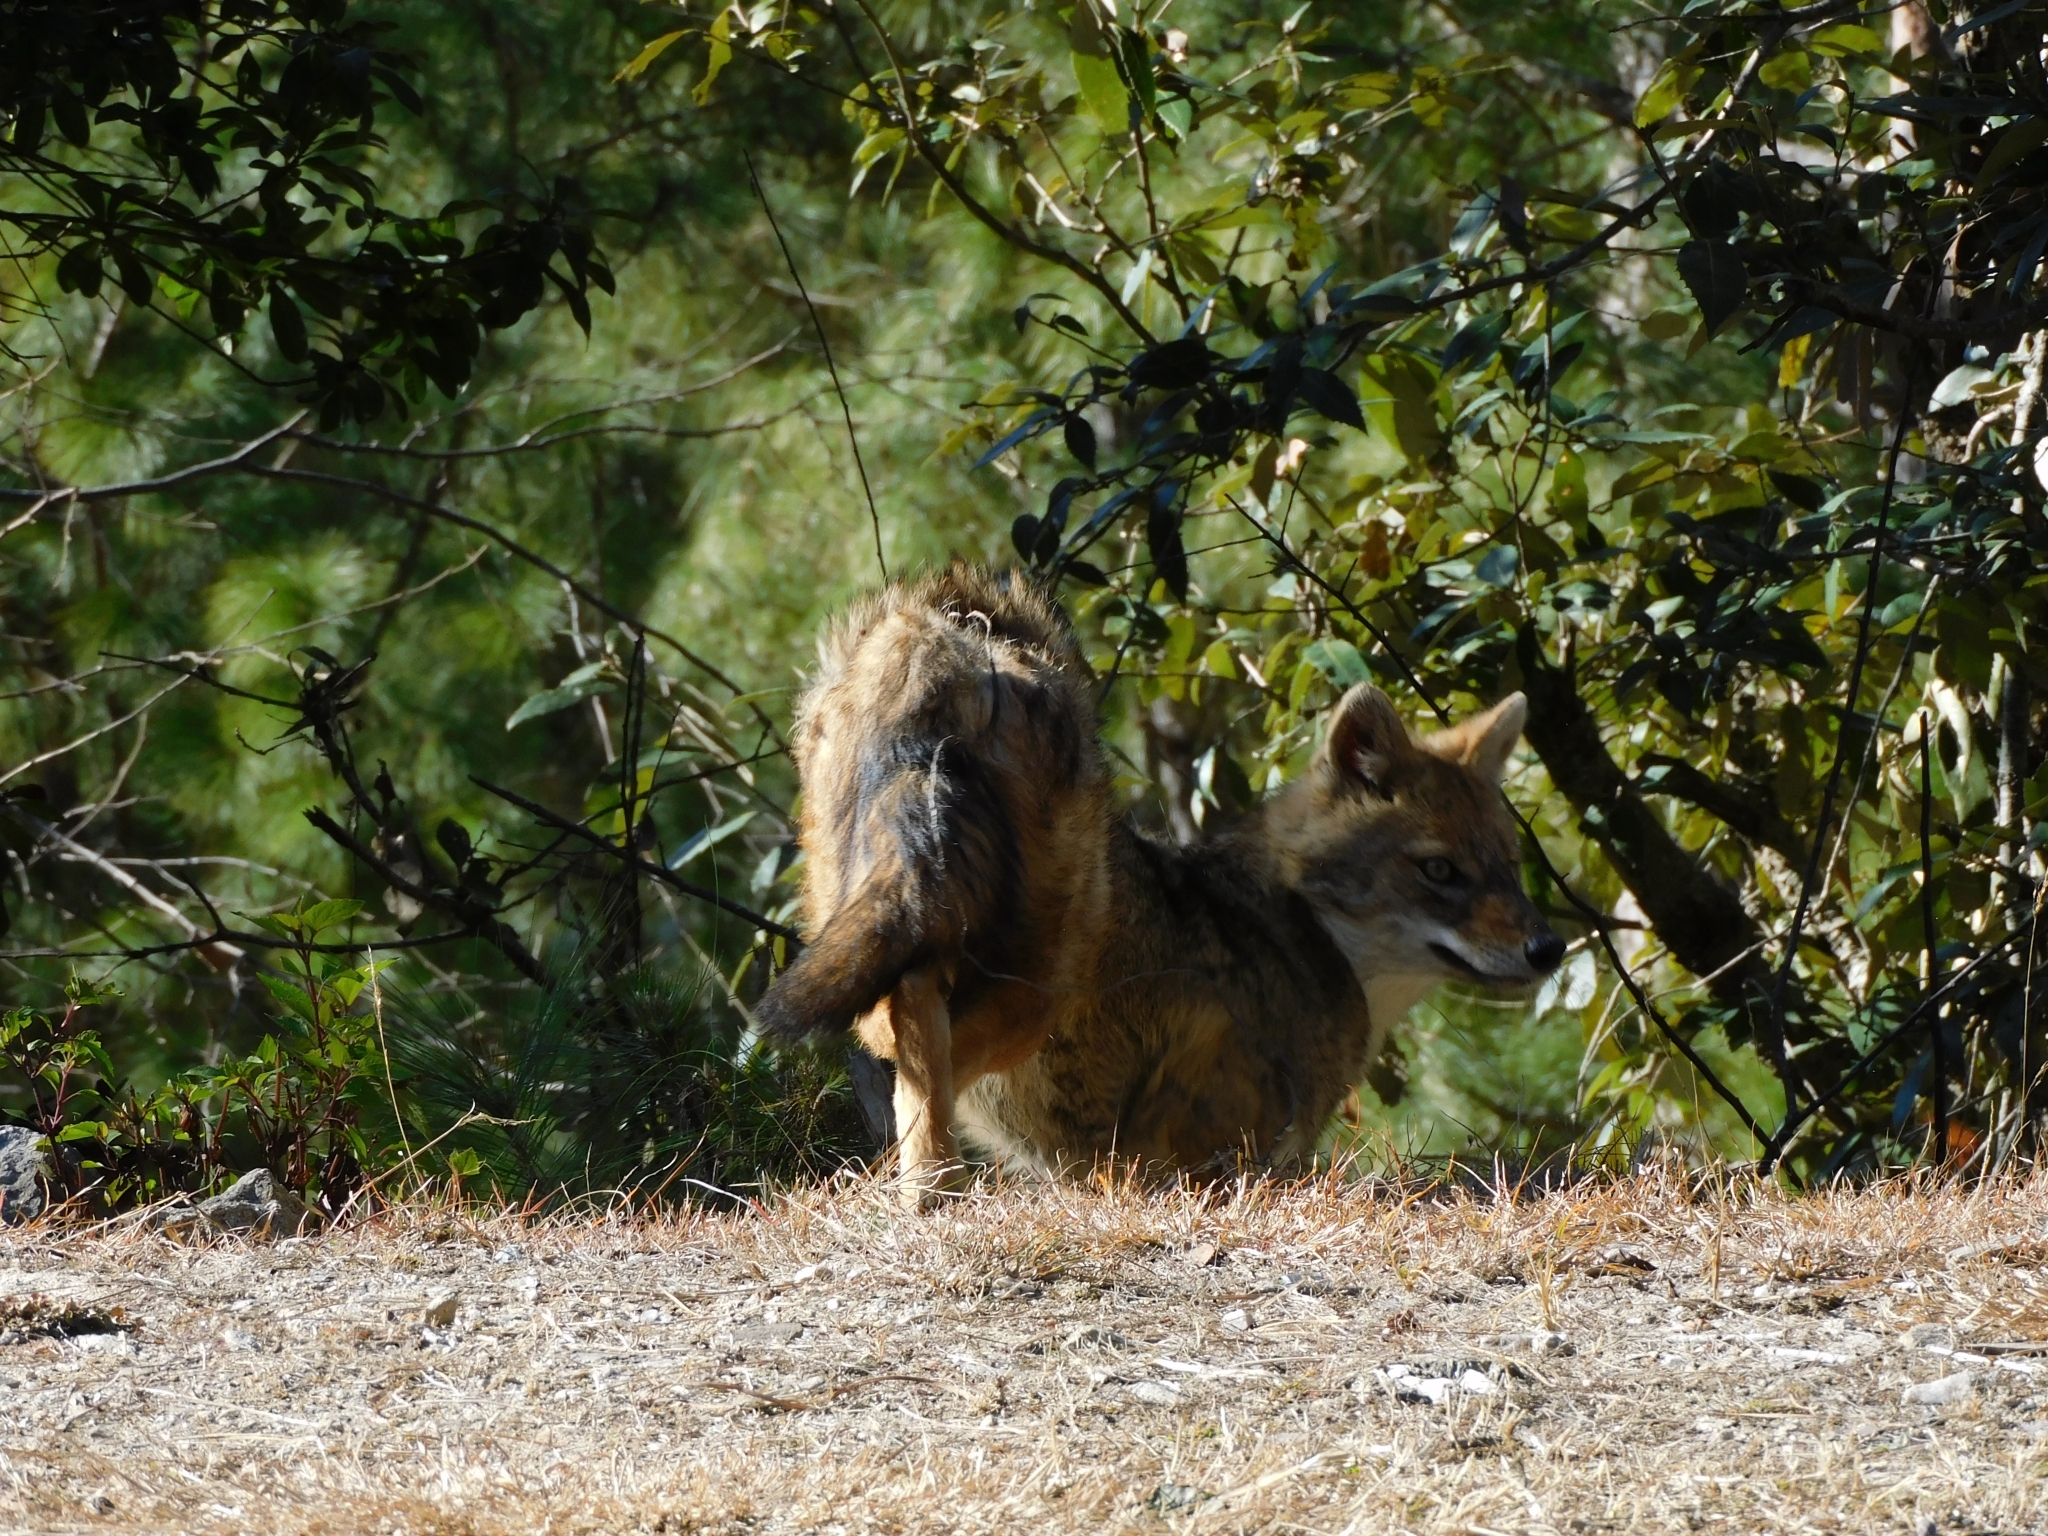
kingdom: Animalia
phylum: Chordata
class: Mammalia
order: Carnivora
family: Canidae
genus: Canis
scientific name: Canis aureus
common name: Golden jackal
